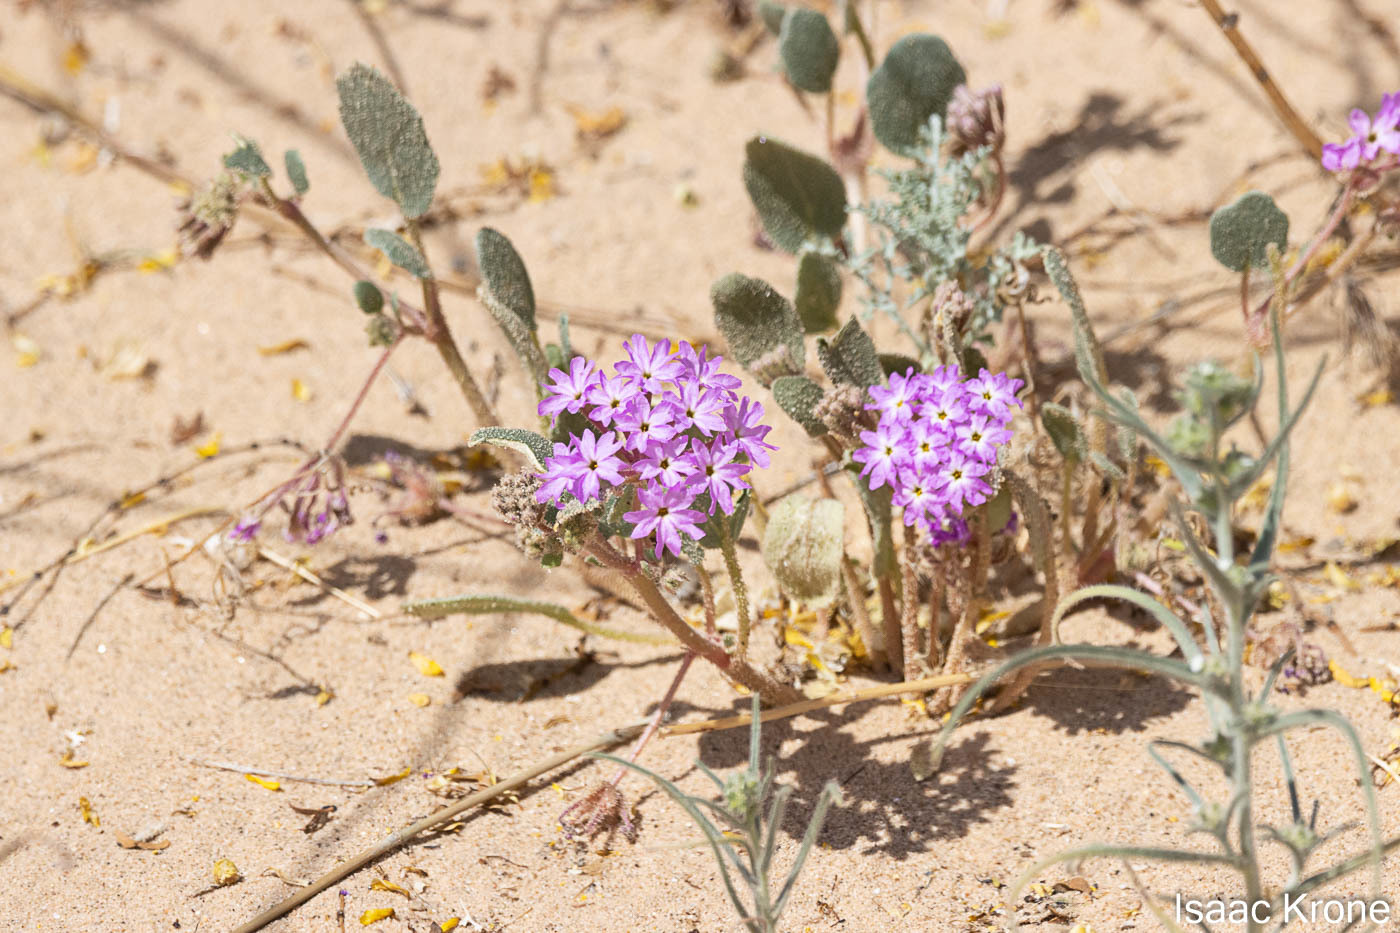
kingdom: Plantae
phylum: Tracheophyta
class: Magnoliopsida
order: Caryophyllales
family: Nyctaginaceae
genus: Abronia
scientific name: Abronia villosa
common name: Desert sand-verbena
